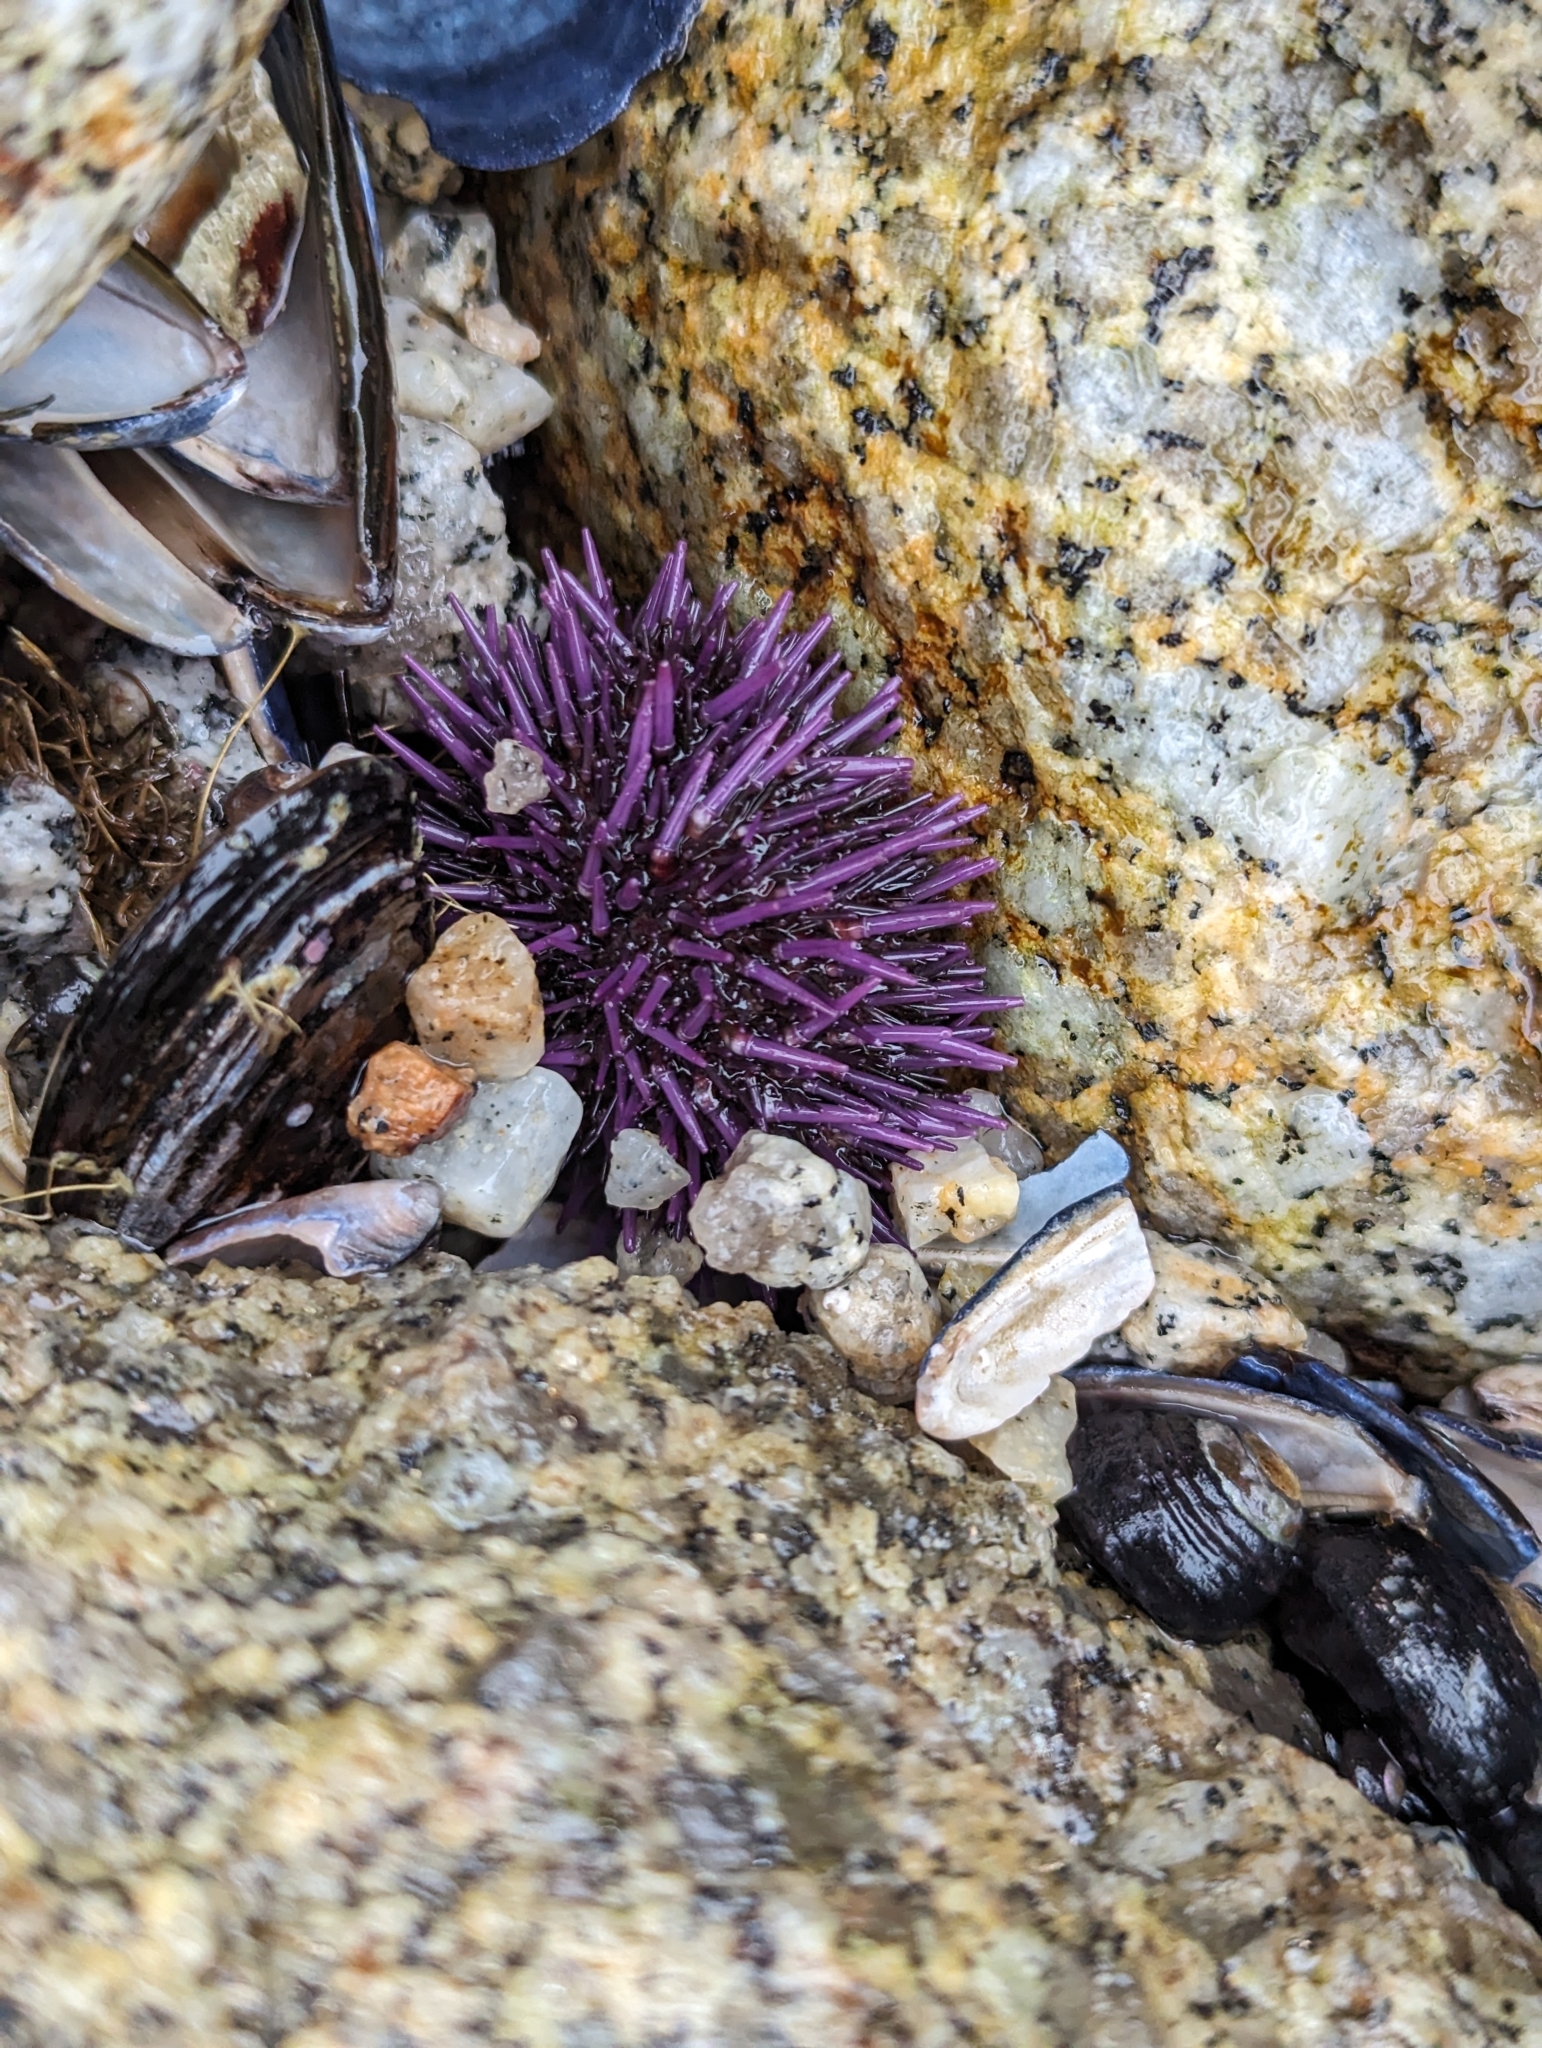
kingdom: Animalia
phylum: Echinodermata
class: Echinoidea
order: Camarodonta
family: Strongylocentrotidae
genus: Strongylocentrotus
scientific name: Strongylocentrotus purpuratus
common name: Purple sea urchin
